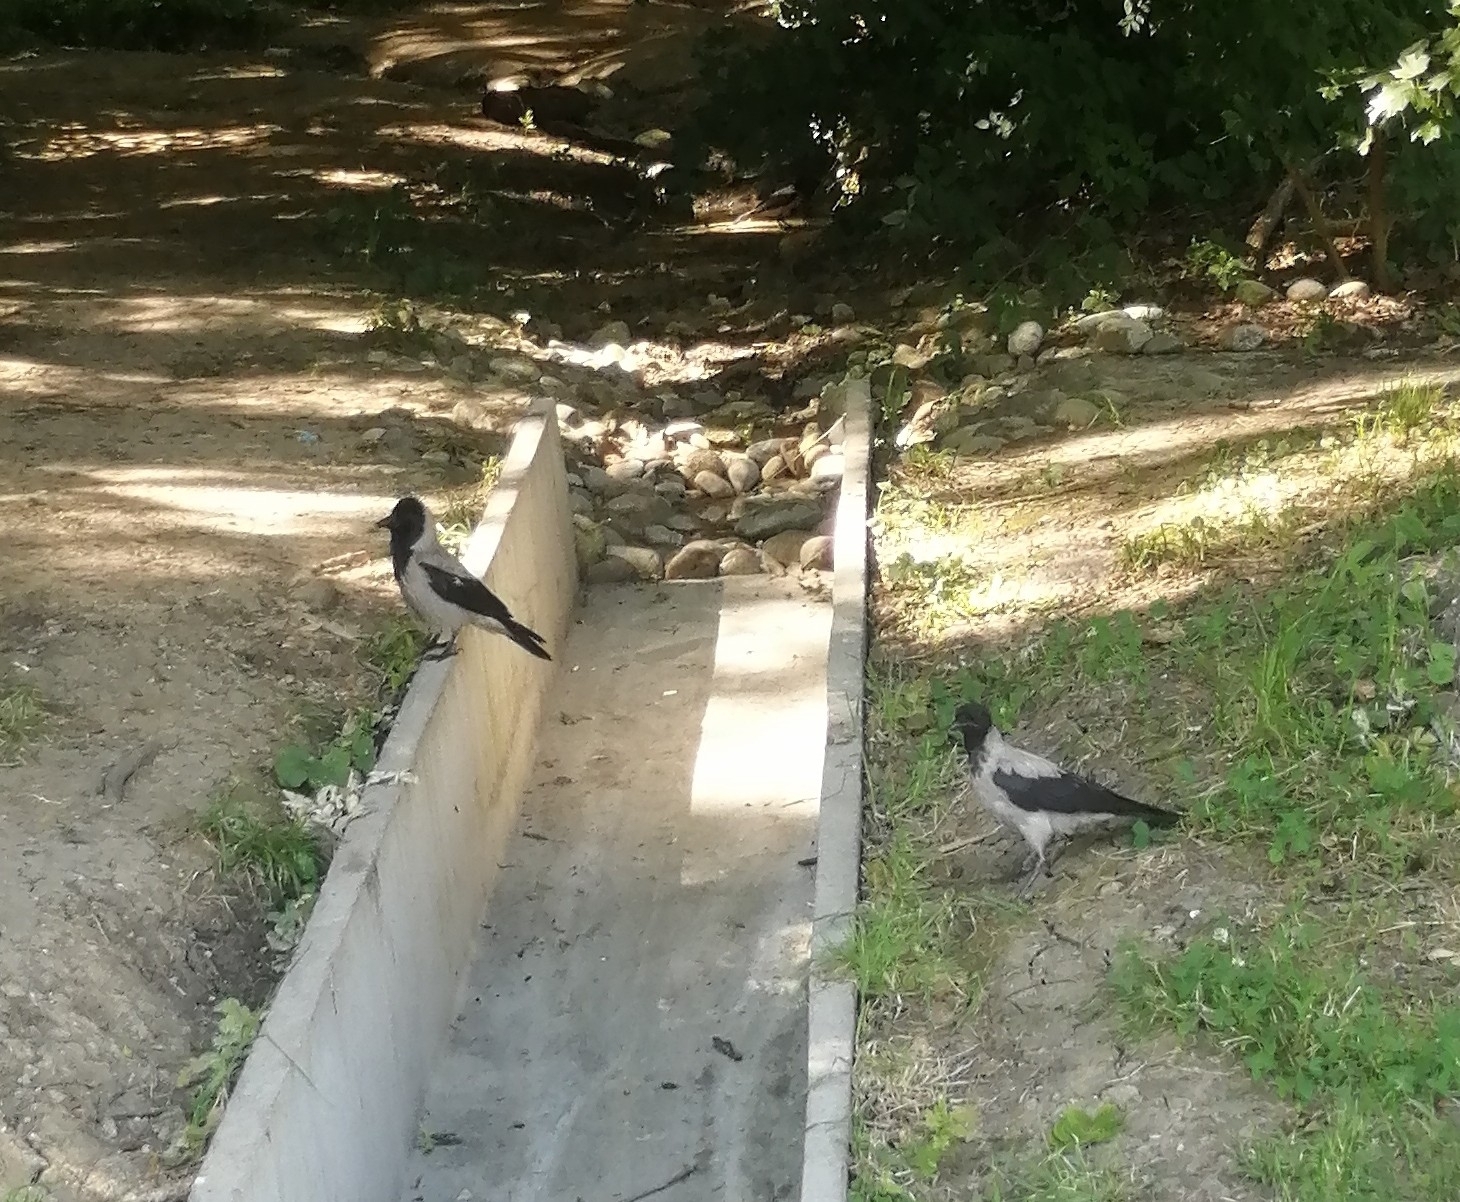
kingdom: Animalia
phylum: Chordata
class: Aves
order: Passeriformes
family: Corvidae
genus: Corvus
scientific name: Corvus cornix
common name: Hooded crow
